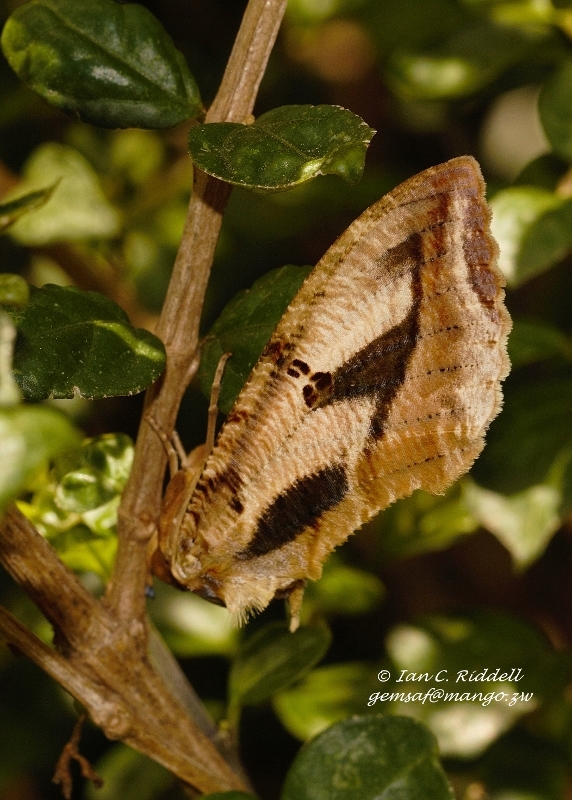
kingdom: Animalia
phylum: Arthropoda
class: Insecta
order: Lepidoptera
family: Erebidae
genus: Eudocima
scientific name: Eudocima materna
